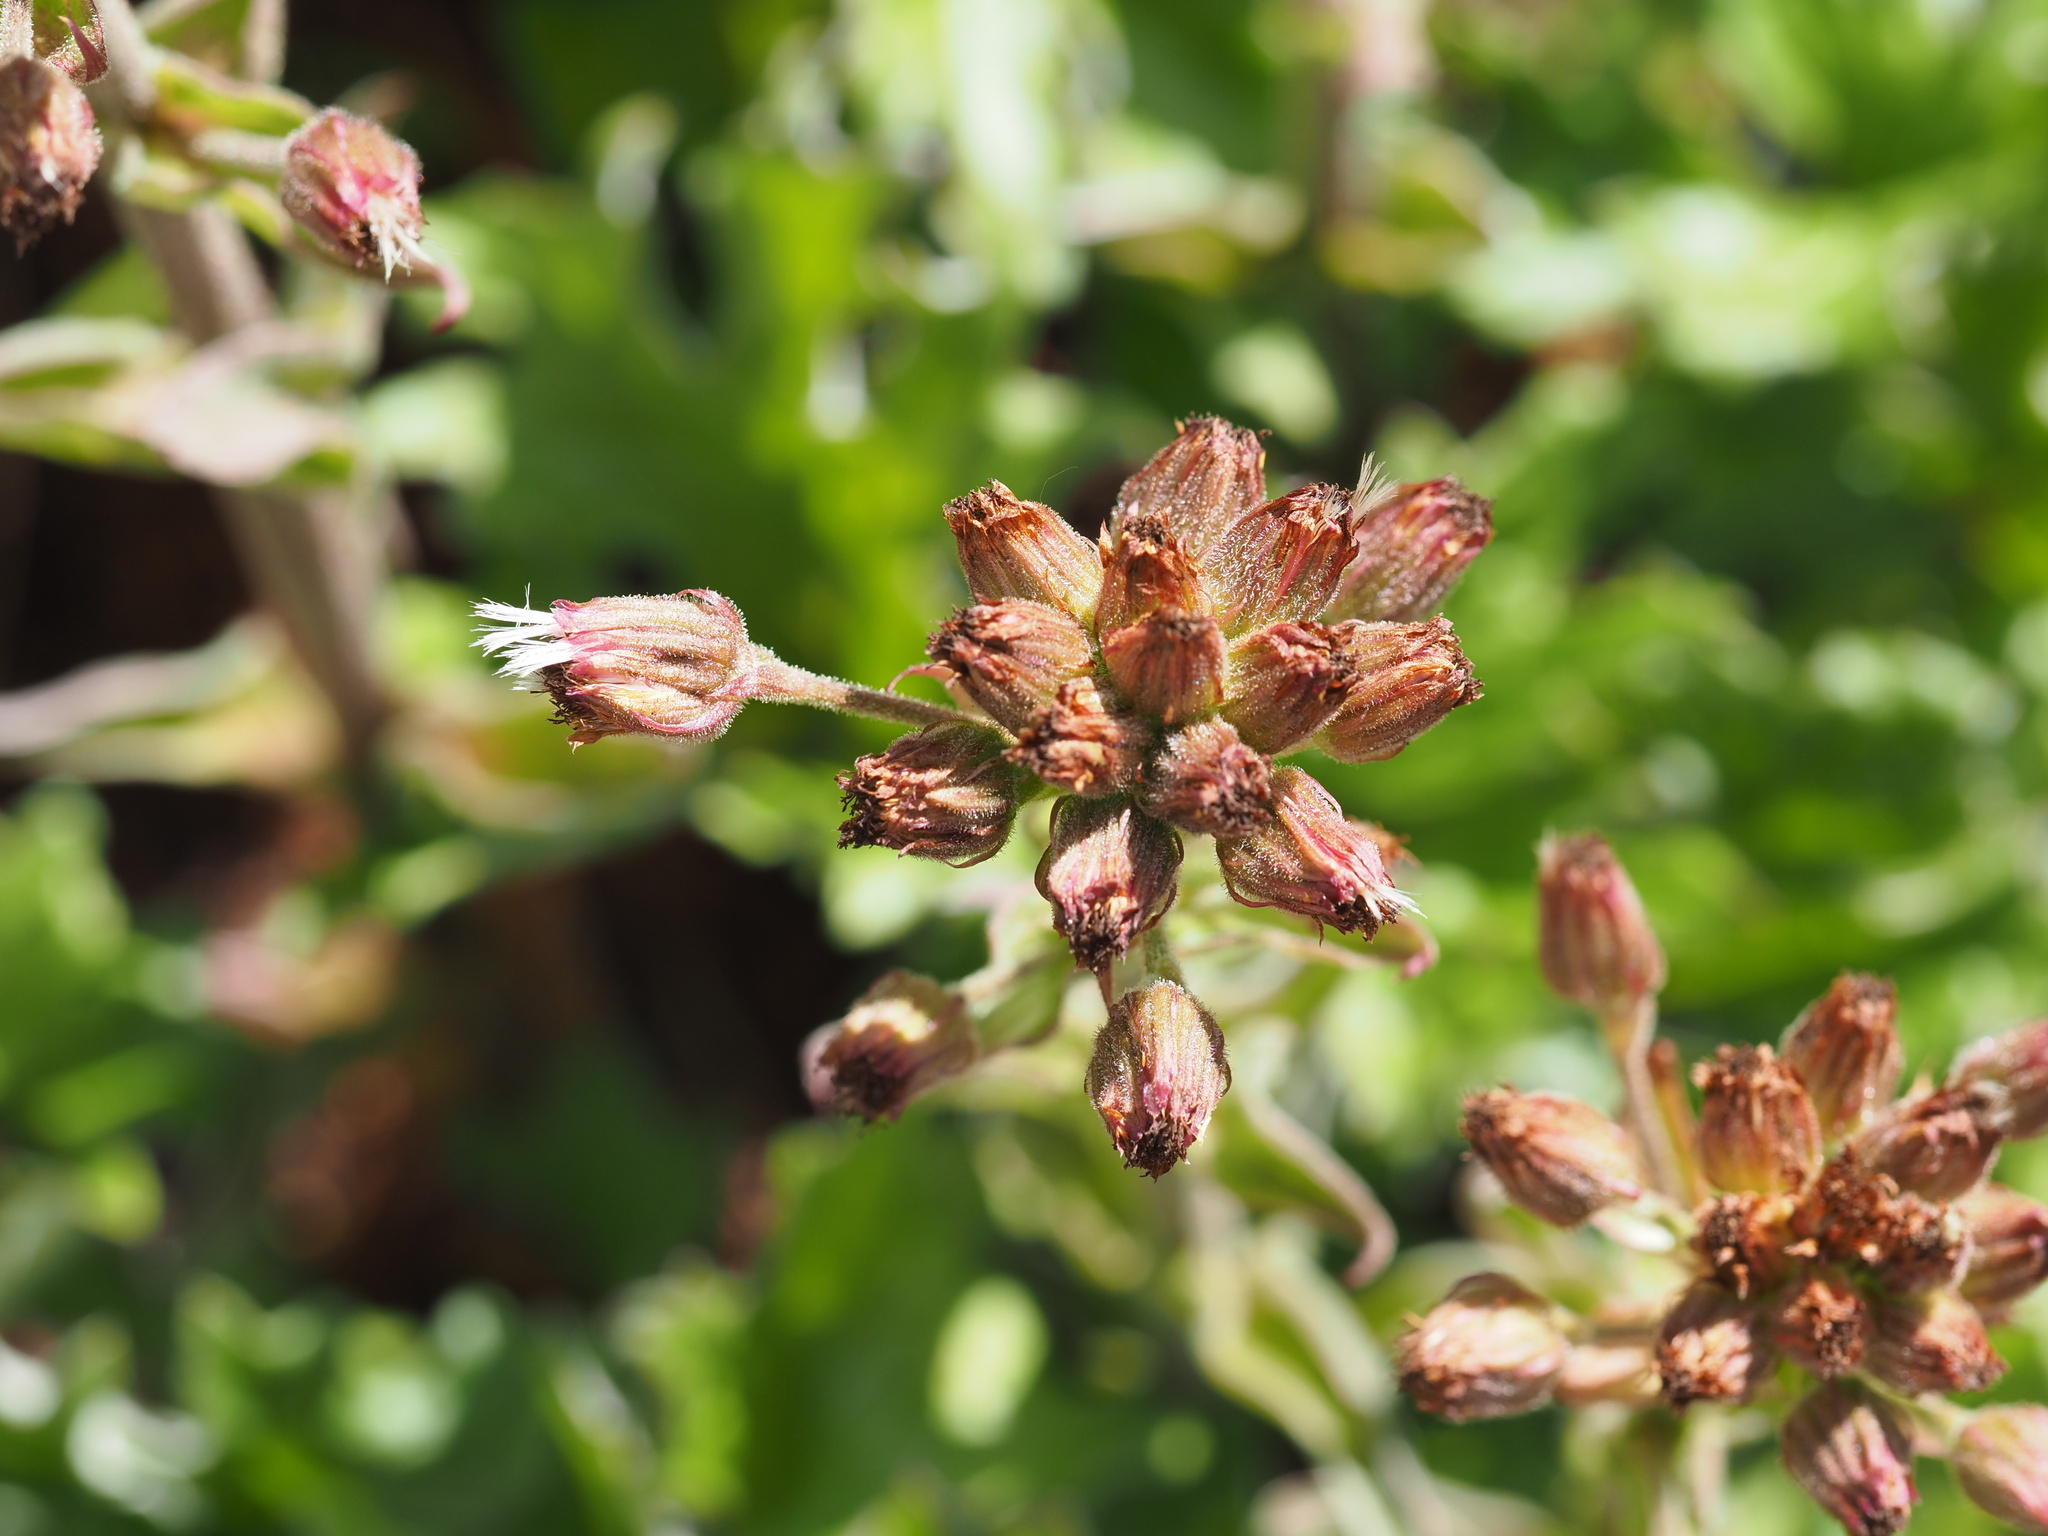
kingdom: Plantae
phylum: Tracheophyta
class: Magnoliopsida
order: Asterales
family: Asteraceae
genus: Petasites
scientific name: Petasites frigidus
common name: Arctic butterbur
